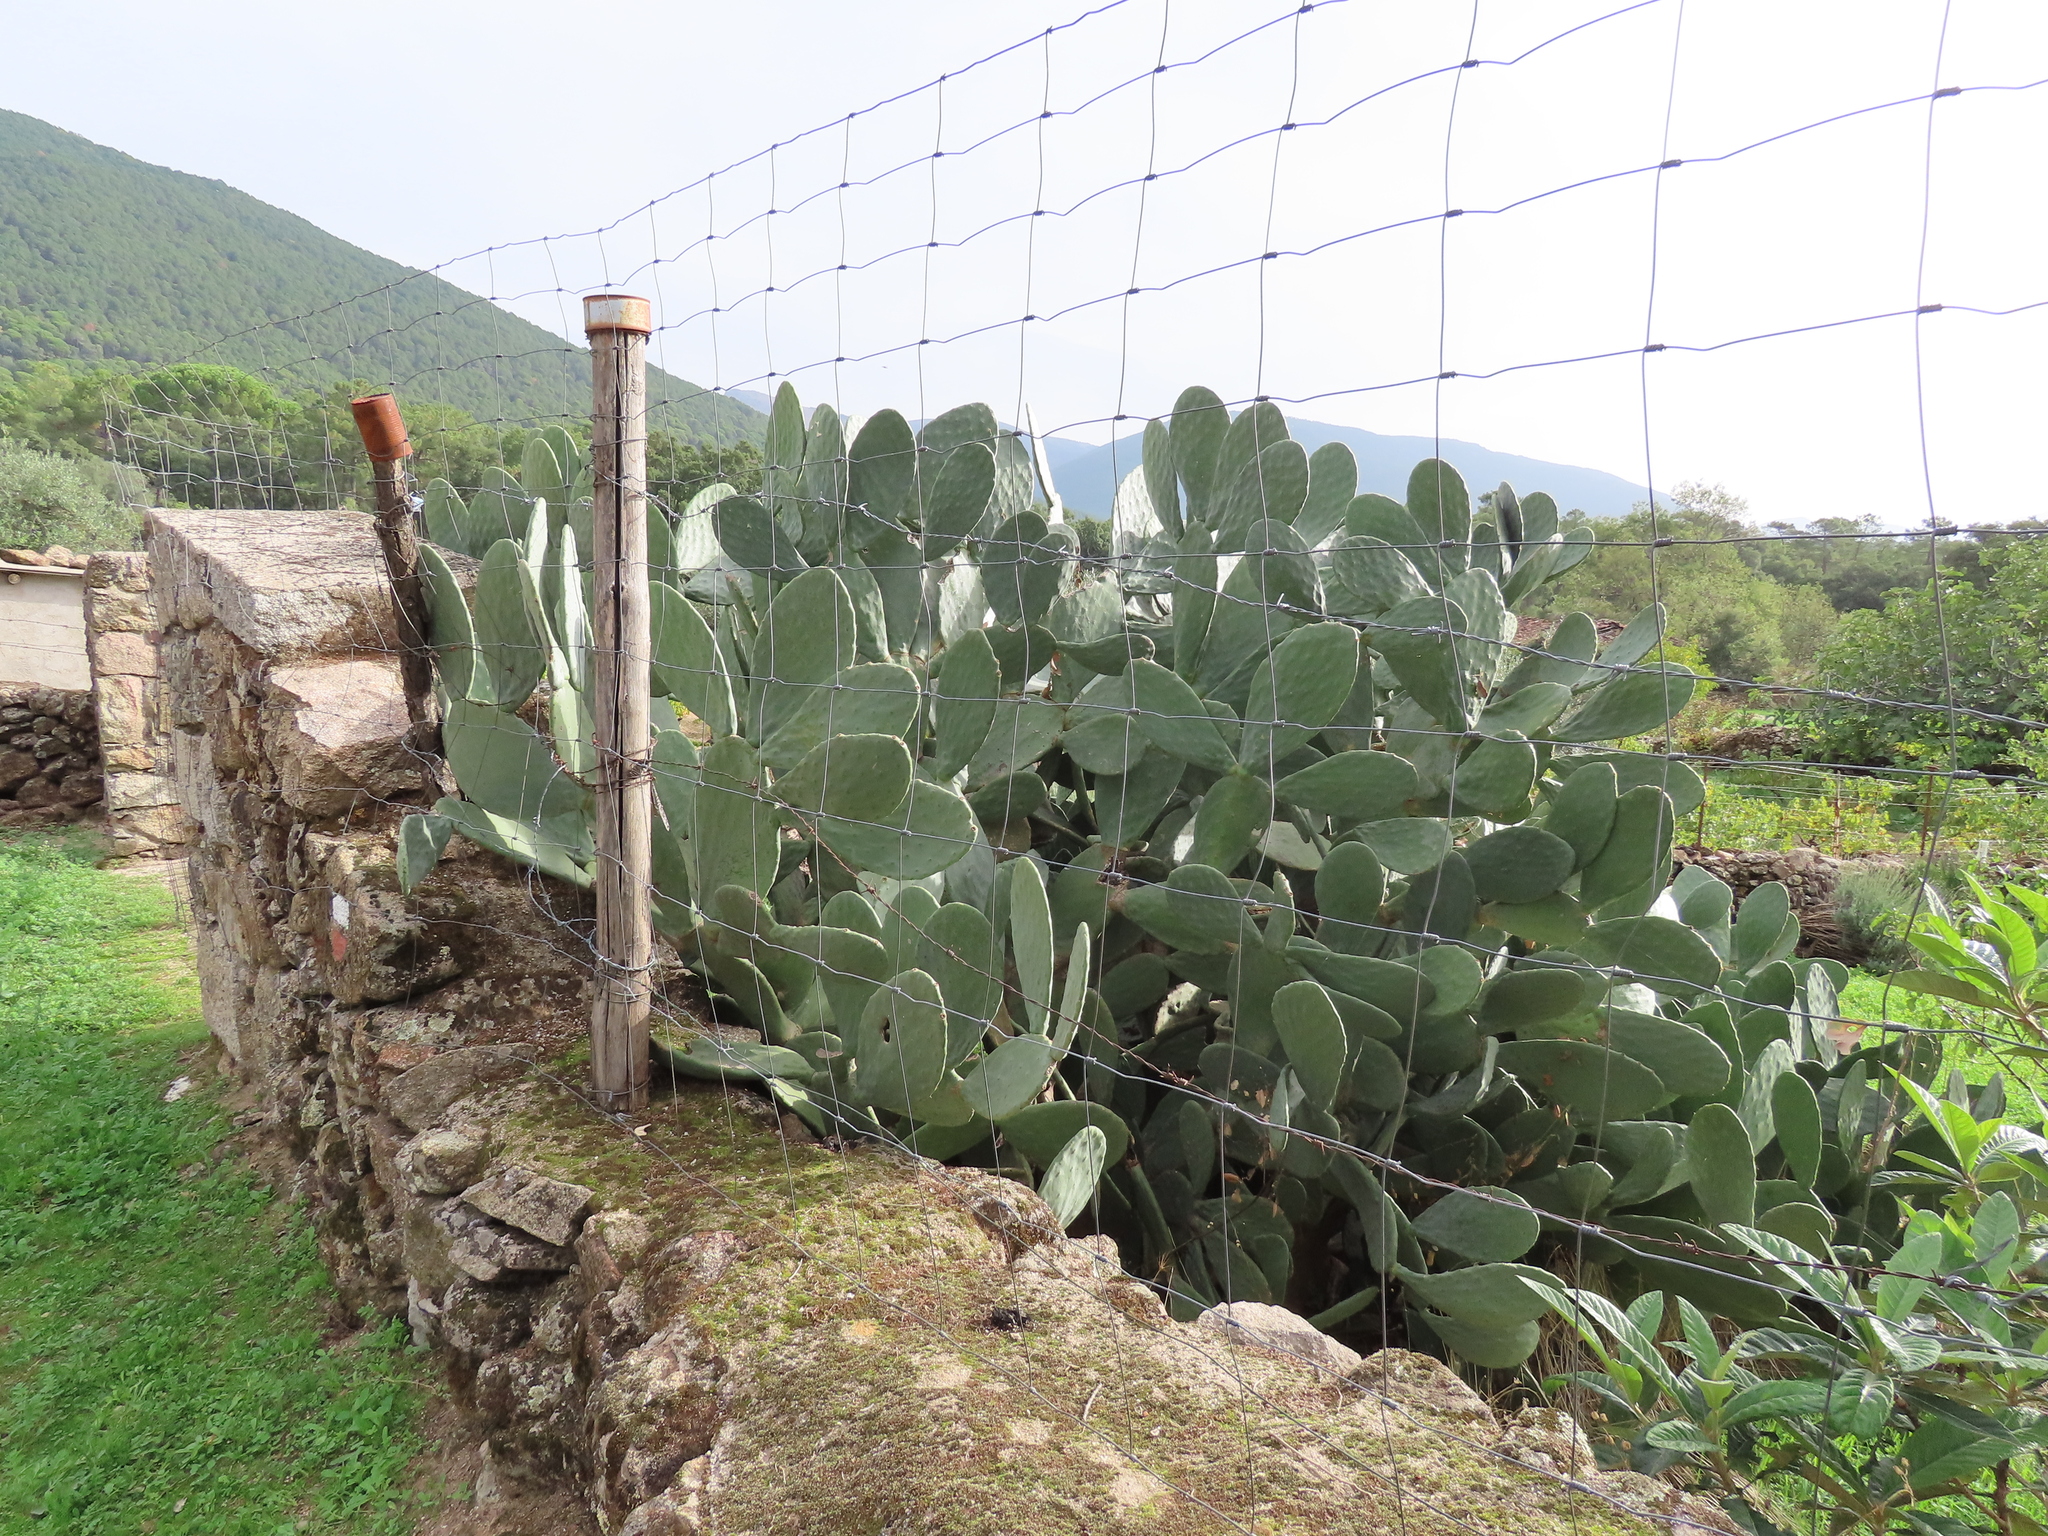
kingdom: Plantae
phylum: Tracheophyta
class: Magnoliopsida
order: Caryophyllales
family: Cactaceae
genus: Opuntia
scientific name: Opuntia ficus-indica
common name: Barbary fig
